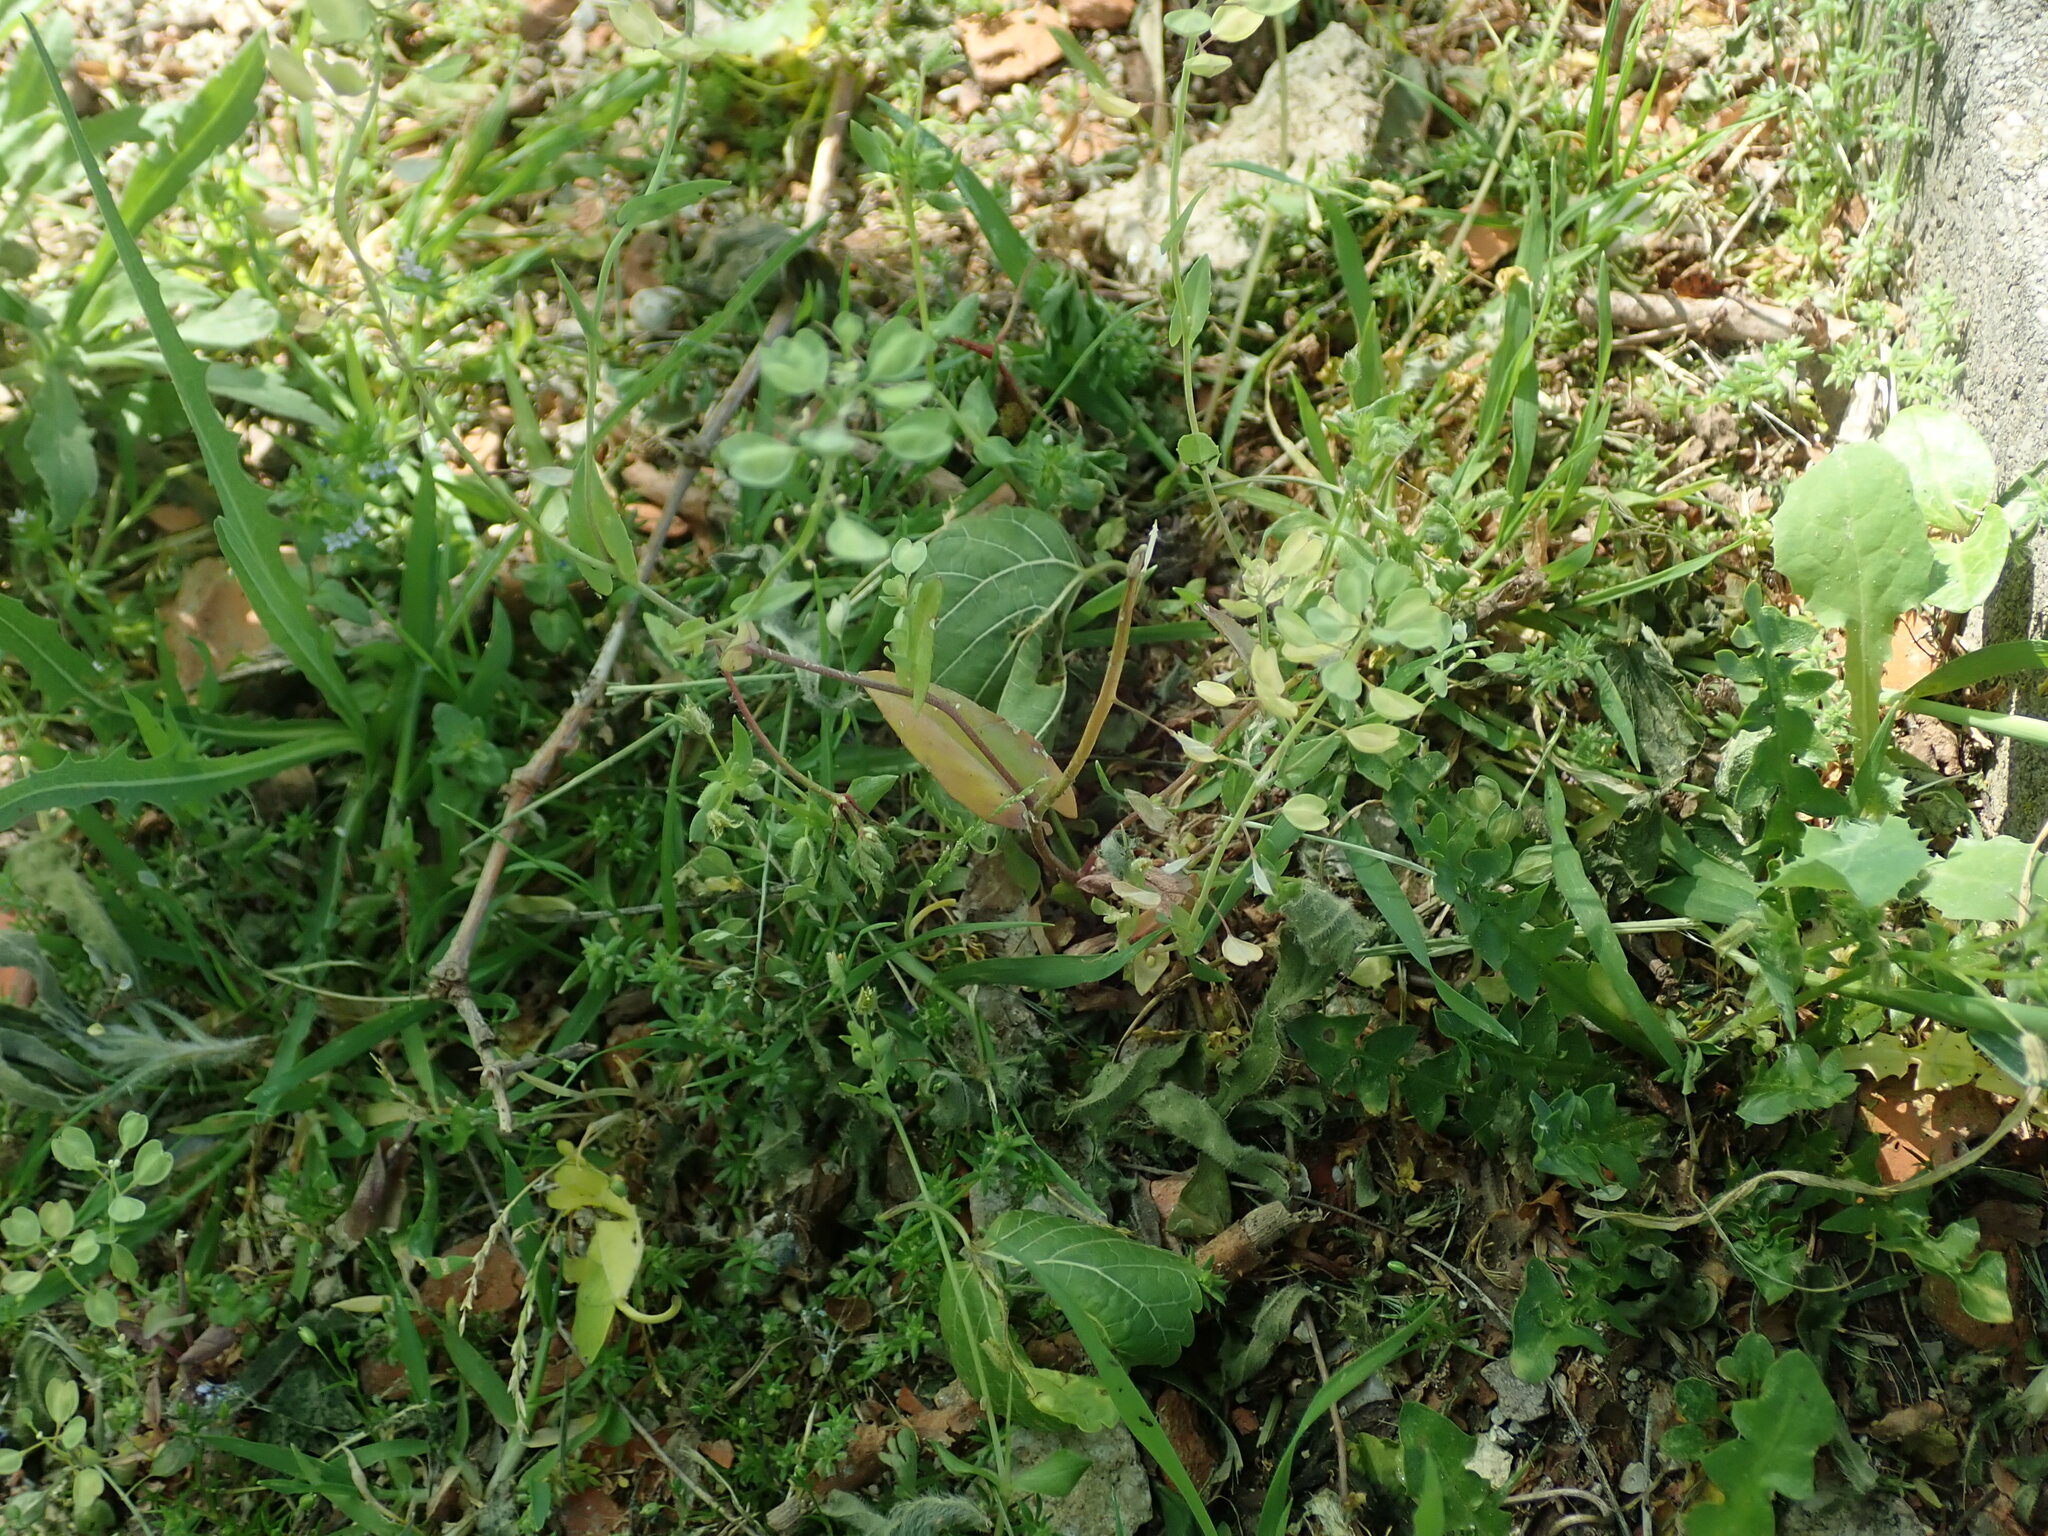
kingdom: Plantae
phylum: Tracheophyta
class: Magnoliopsida
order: Brassicales
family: Brassicaceae
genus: Noccaea
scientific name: Noccaea perfoliata
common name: Perfoliate pennycress
